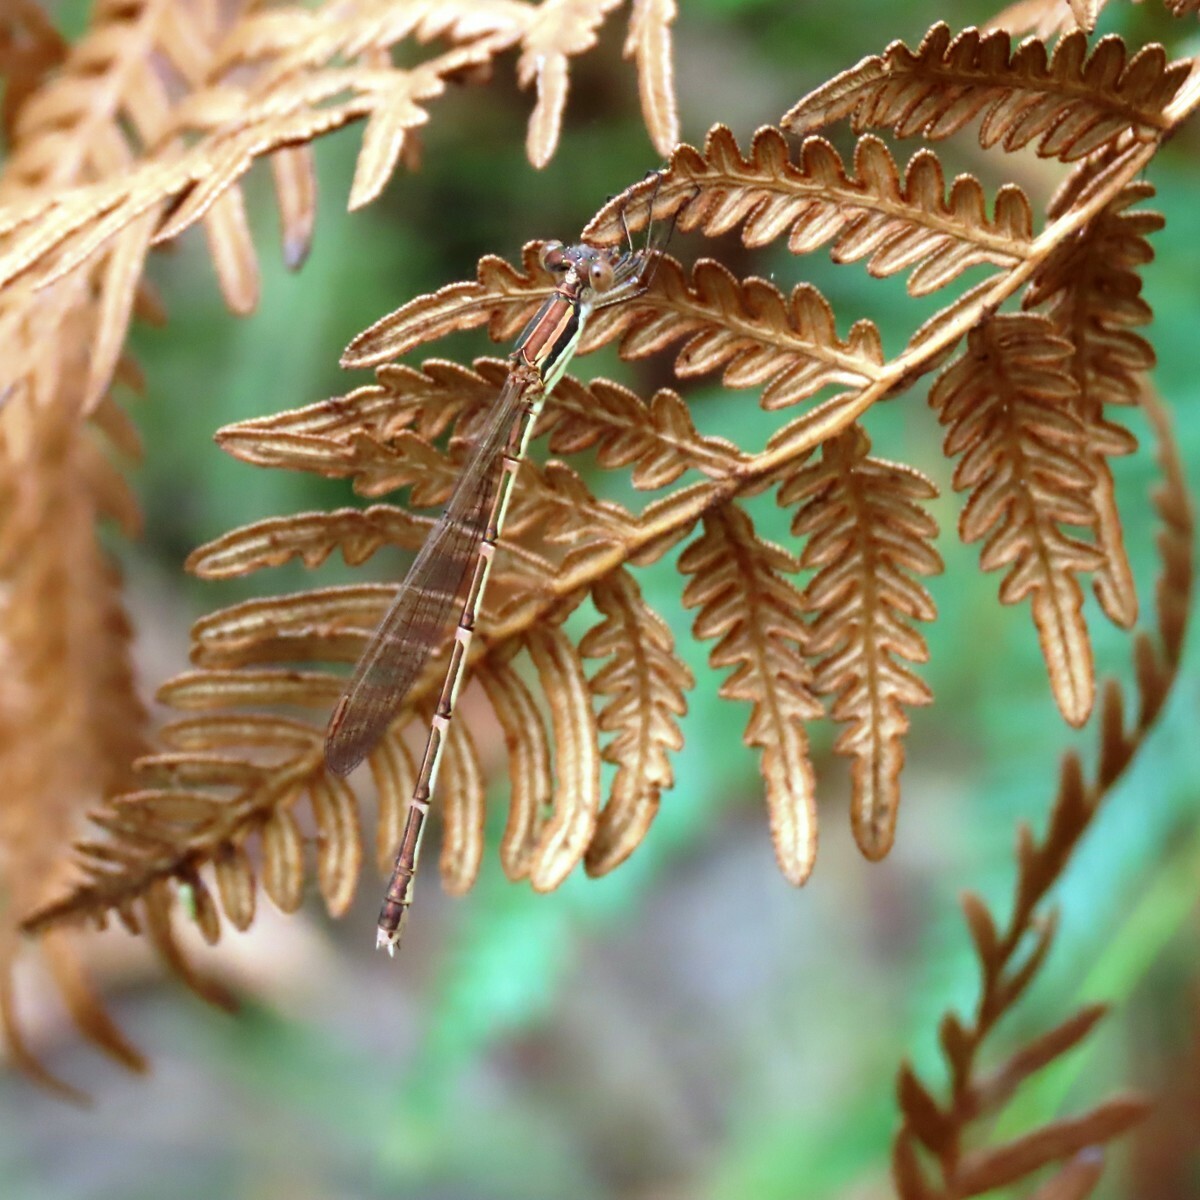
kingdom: Animalia
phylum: Arthropoda
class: Insecta
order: Odonata
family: Lestidae
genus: Austrolestes
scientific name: Austrolestes analis
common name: Slender ringtail
